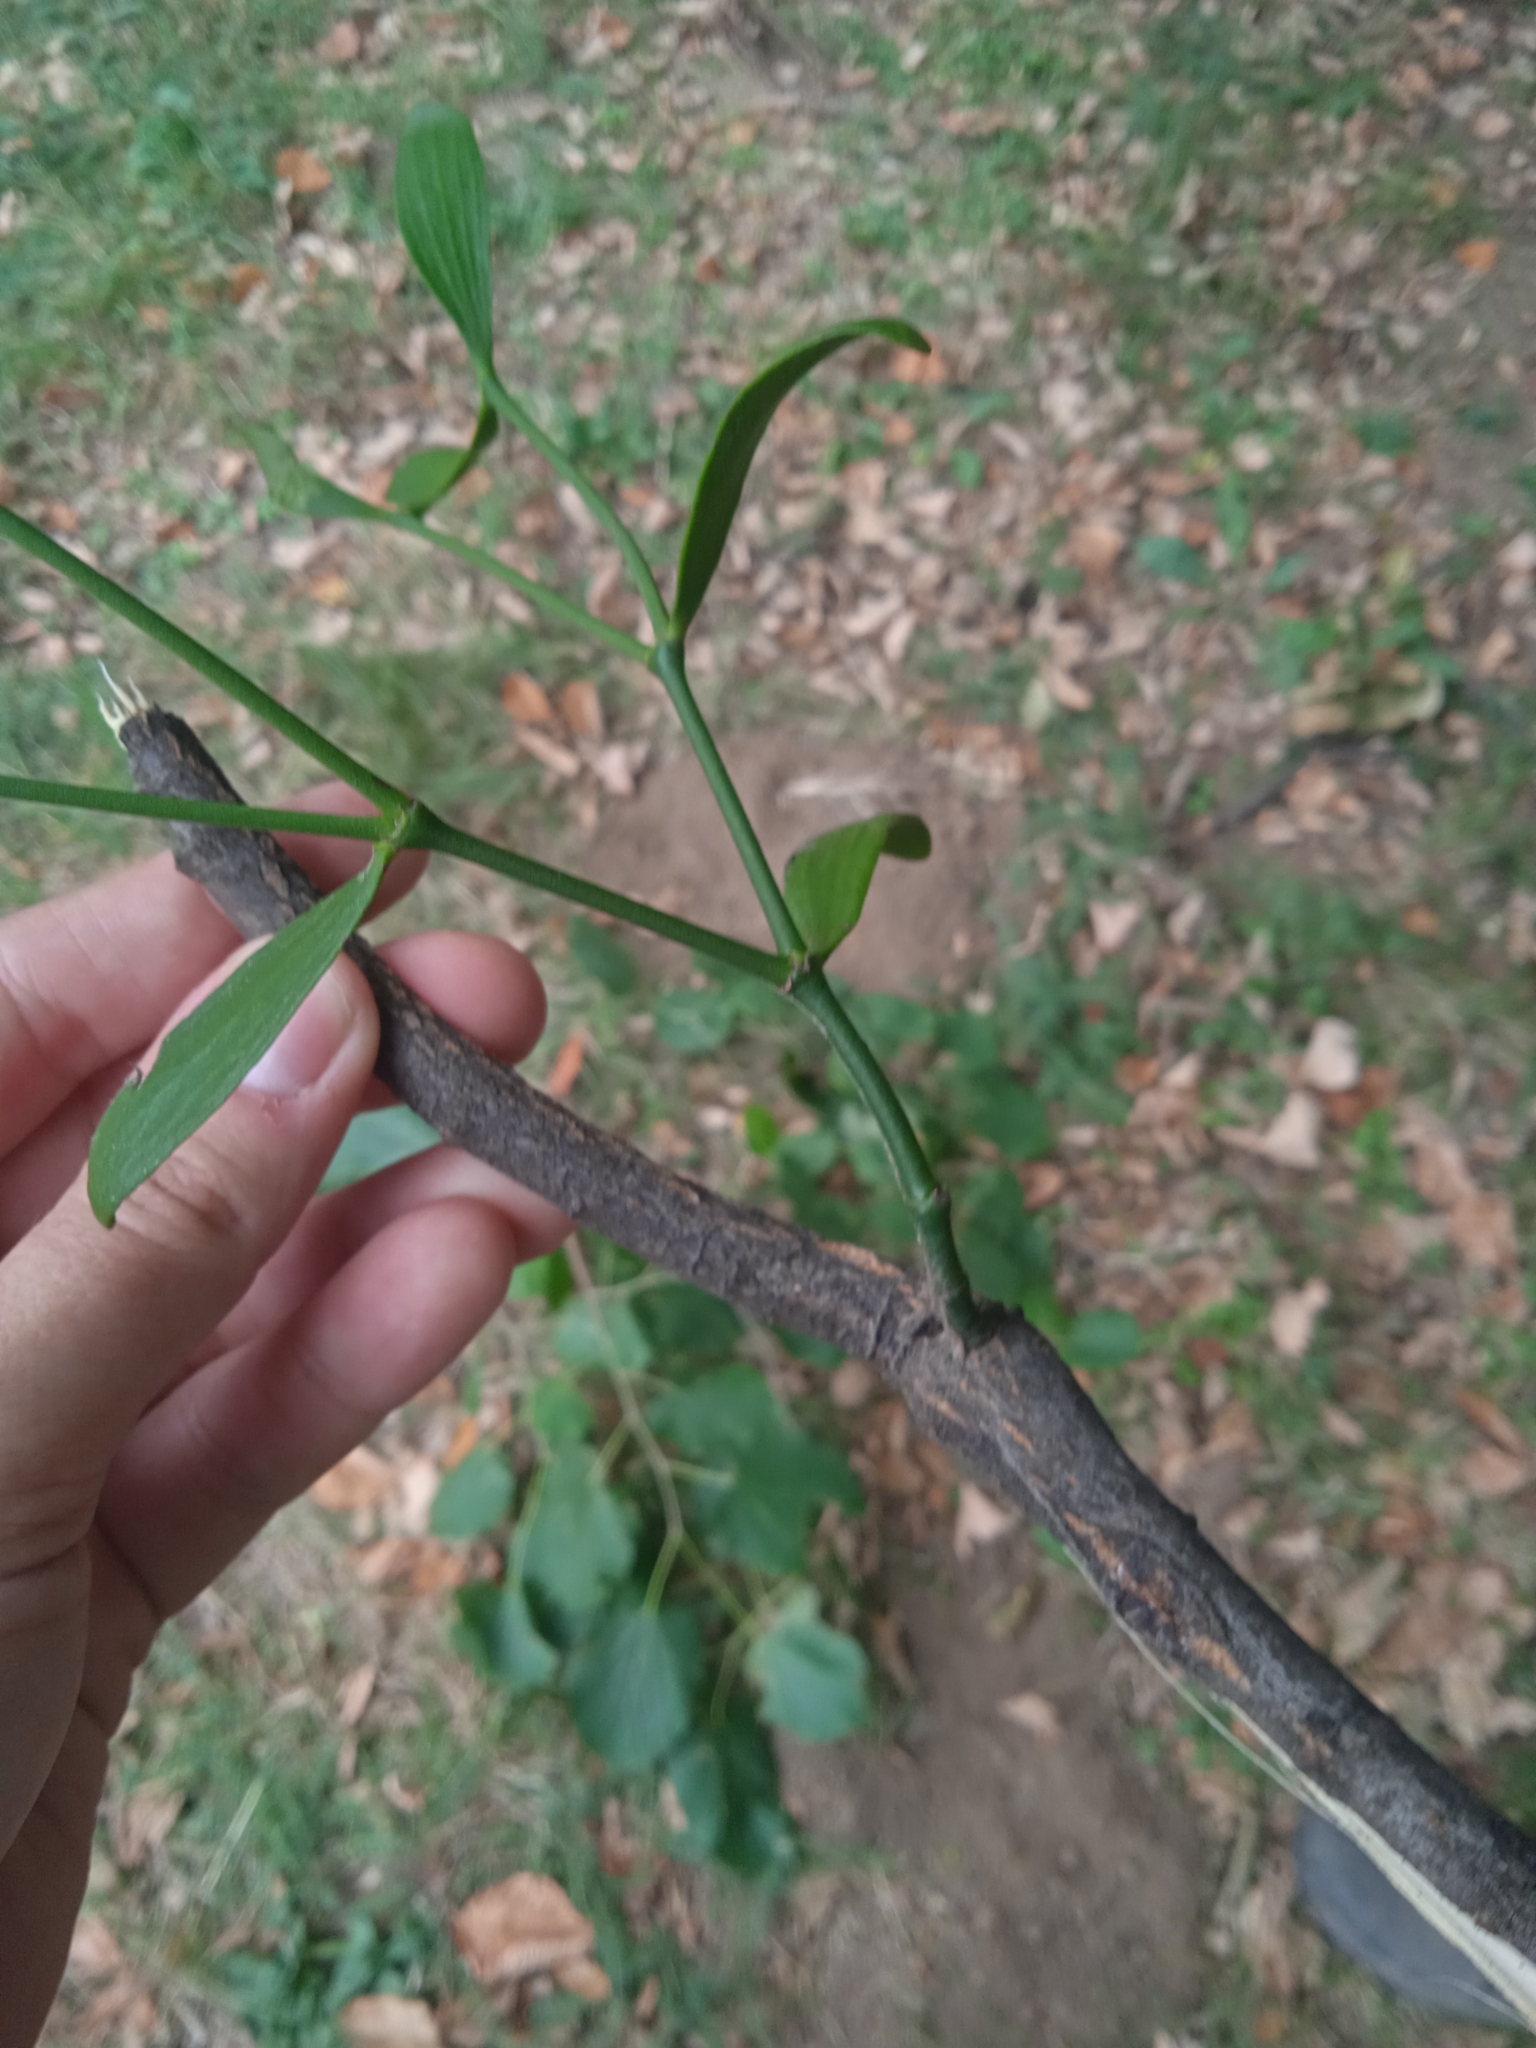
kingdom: Plantae
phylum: Tracheophyta
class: Magnoliopsida
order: Santalales
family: Viscaceae
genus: Viscum
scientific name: Viscum album
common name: Mistletoe
